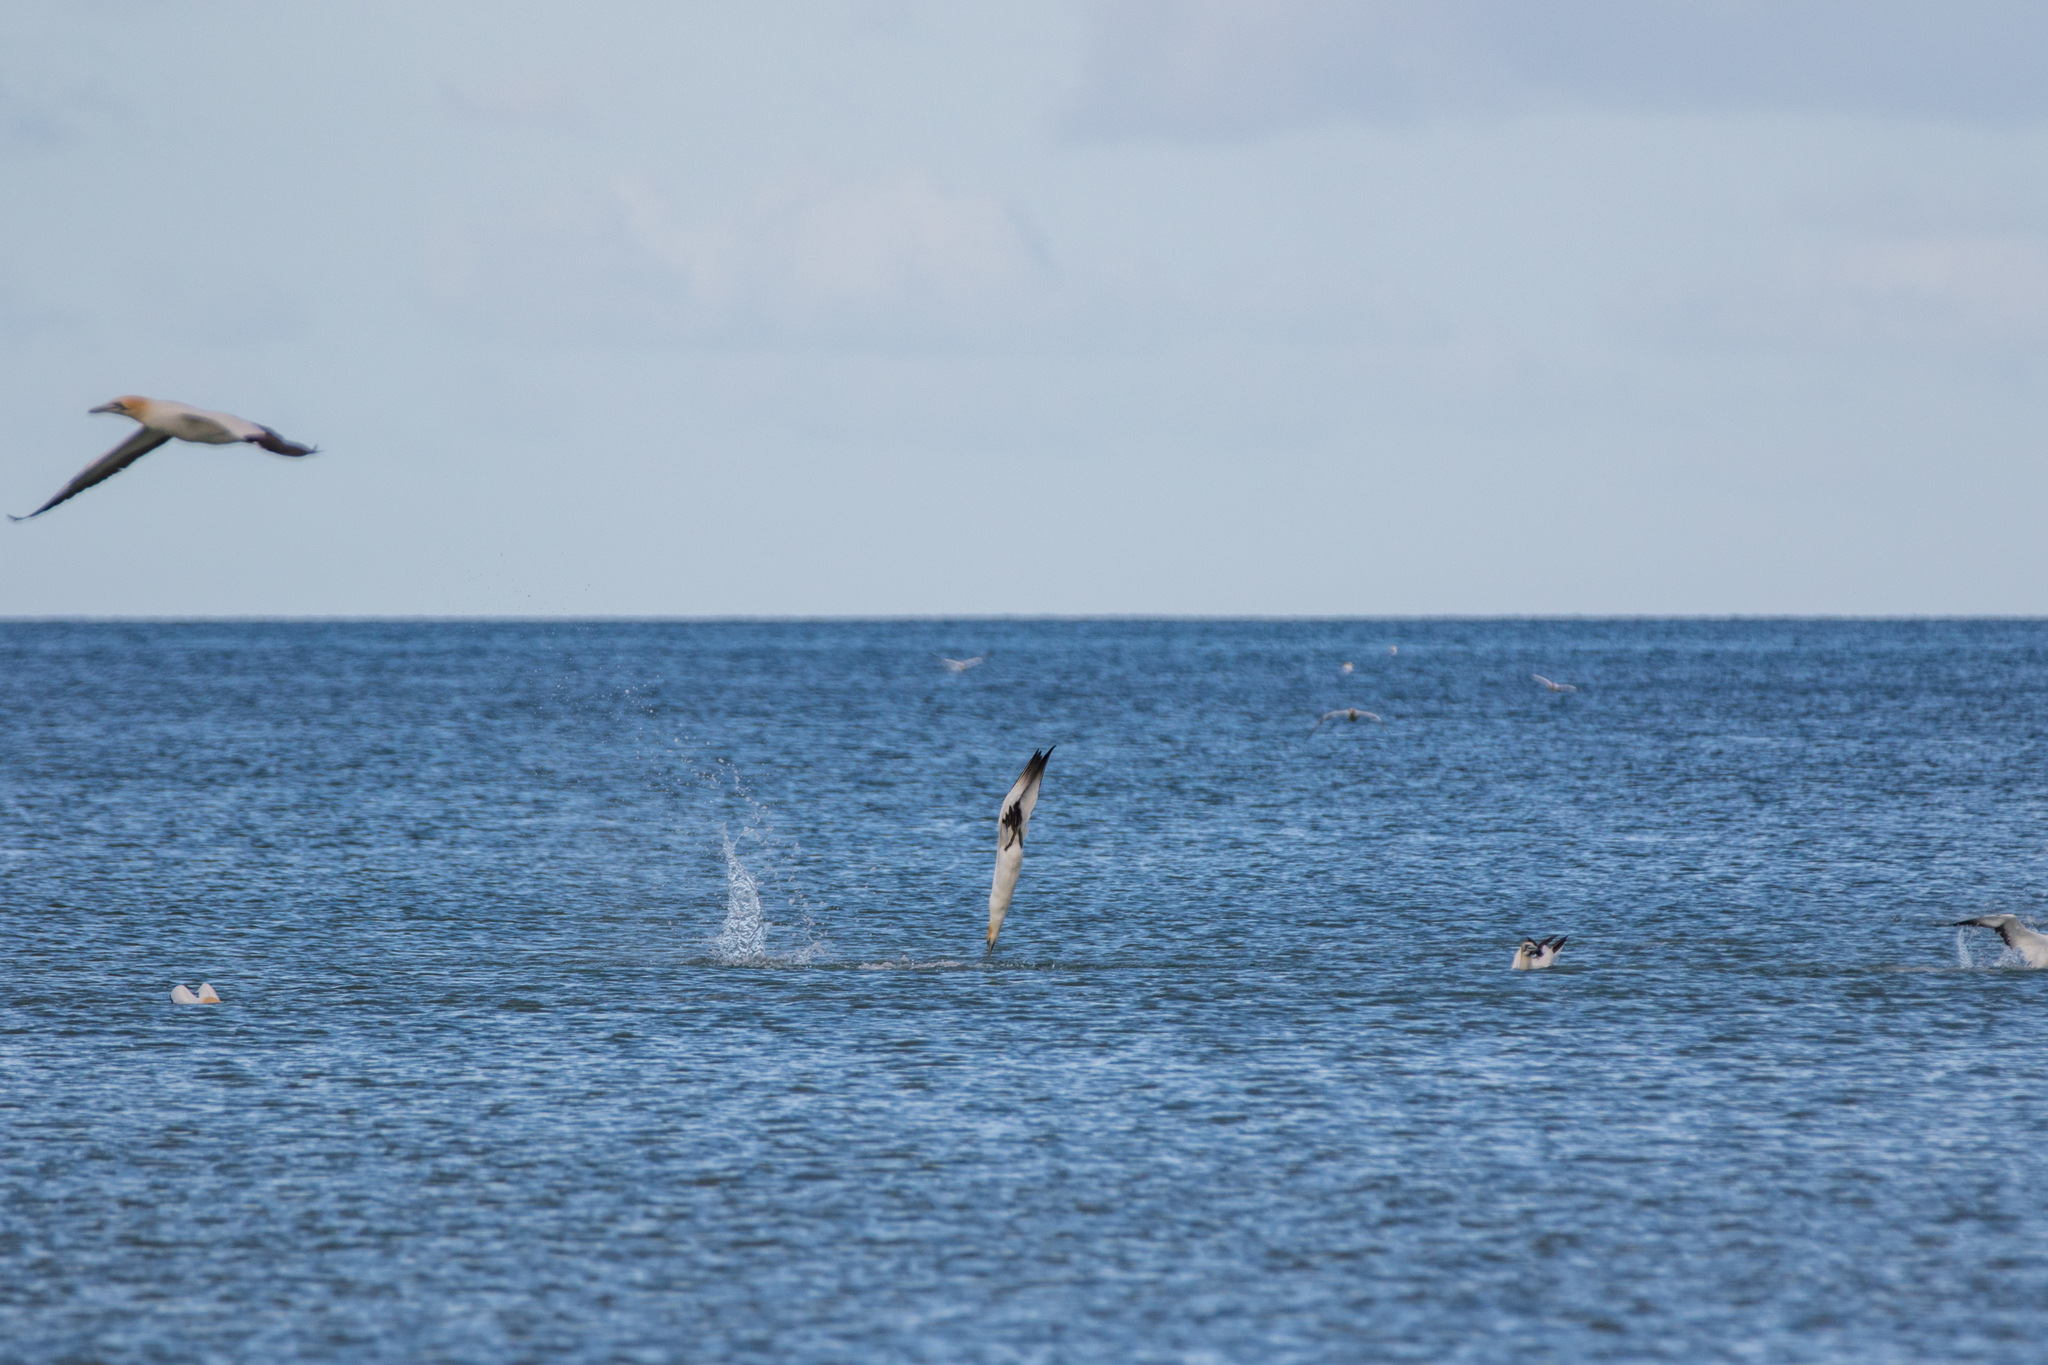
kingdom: Animalia
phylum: Chordata
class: Aves
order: Suliformes
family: Sulidae
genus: Morus
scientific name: Morus serrator
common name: Australasian gannet
